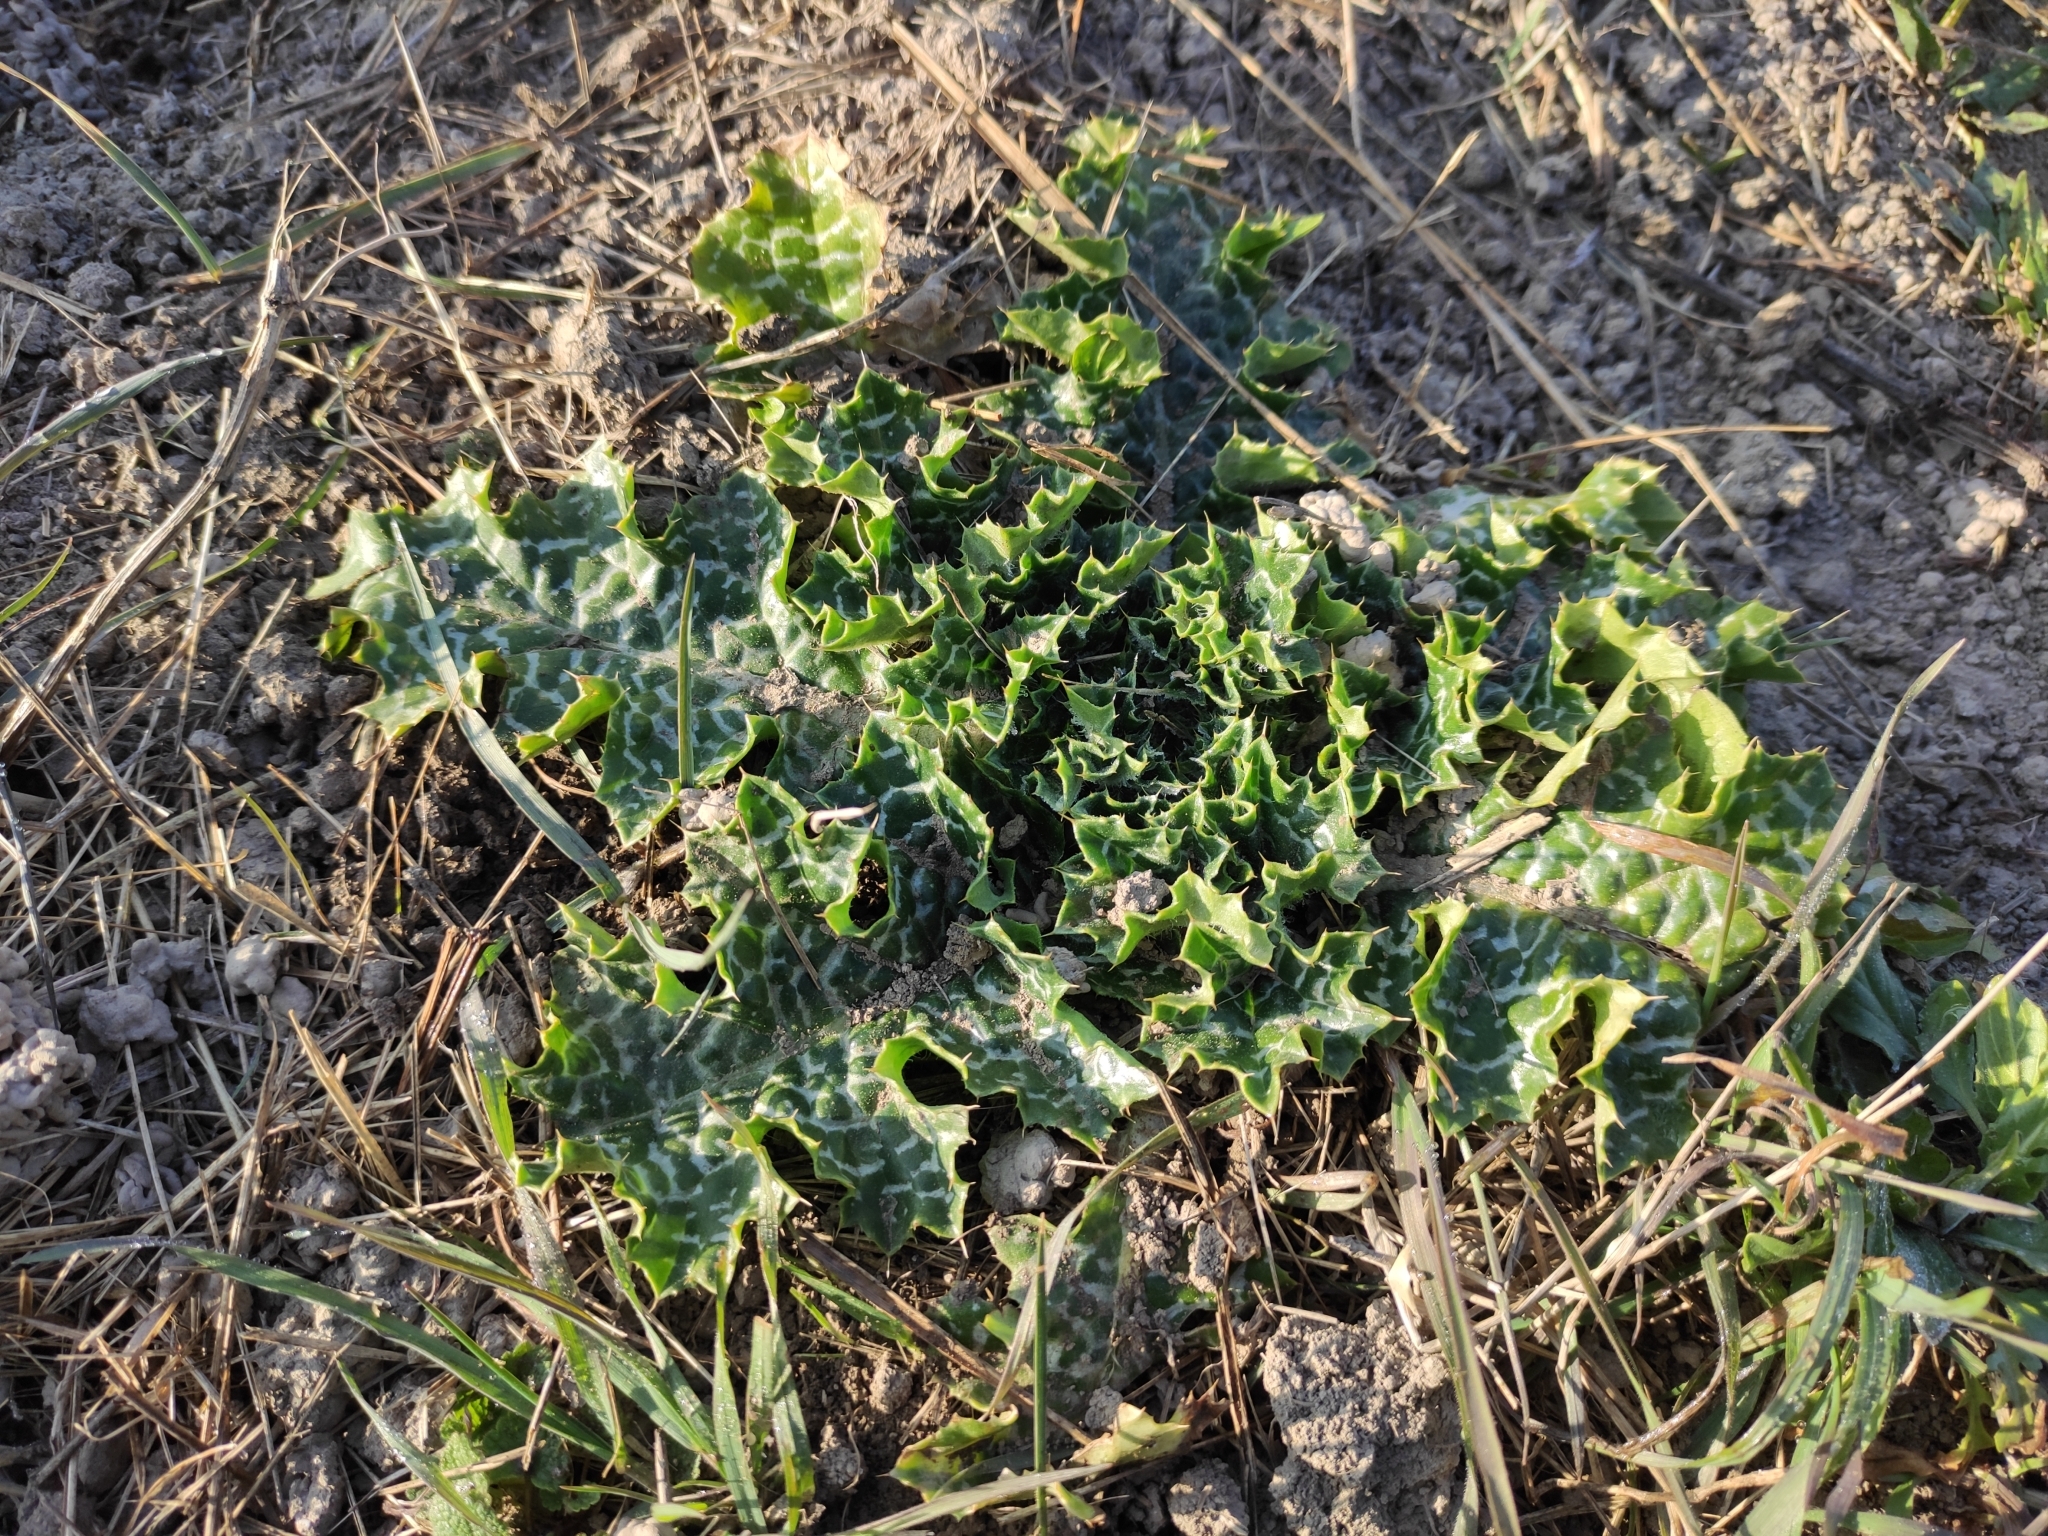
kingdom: Plantae
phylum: Tracheophyta
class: Magnoliopsida
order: Asterales
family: Asteraceae
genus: Silybum
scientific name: Silybum marianum
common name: Milk thistle
